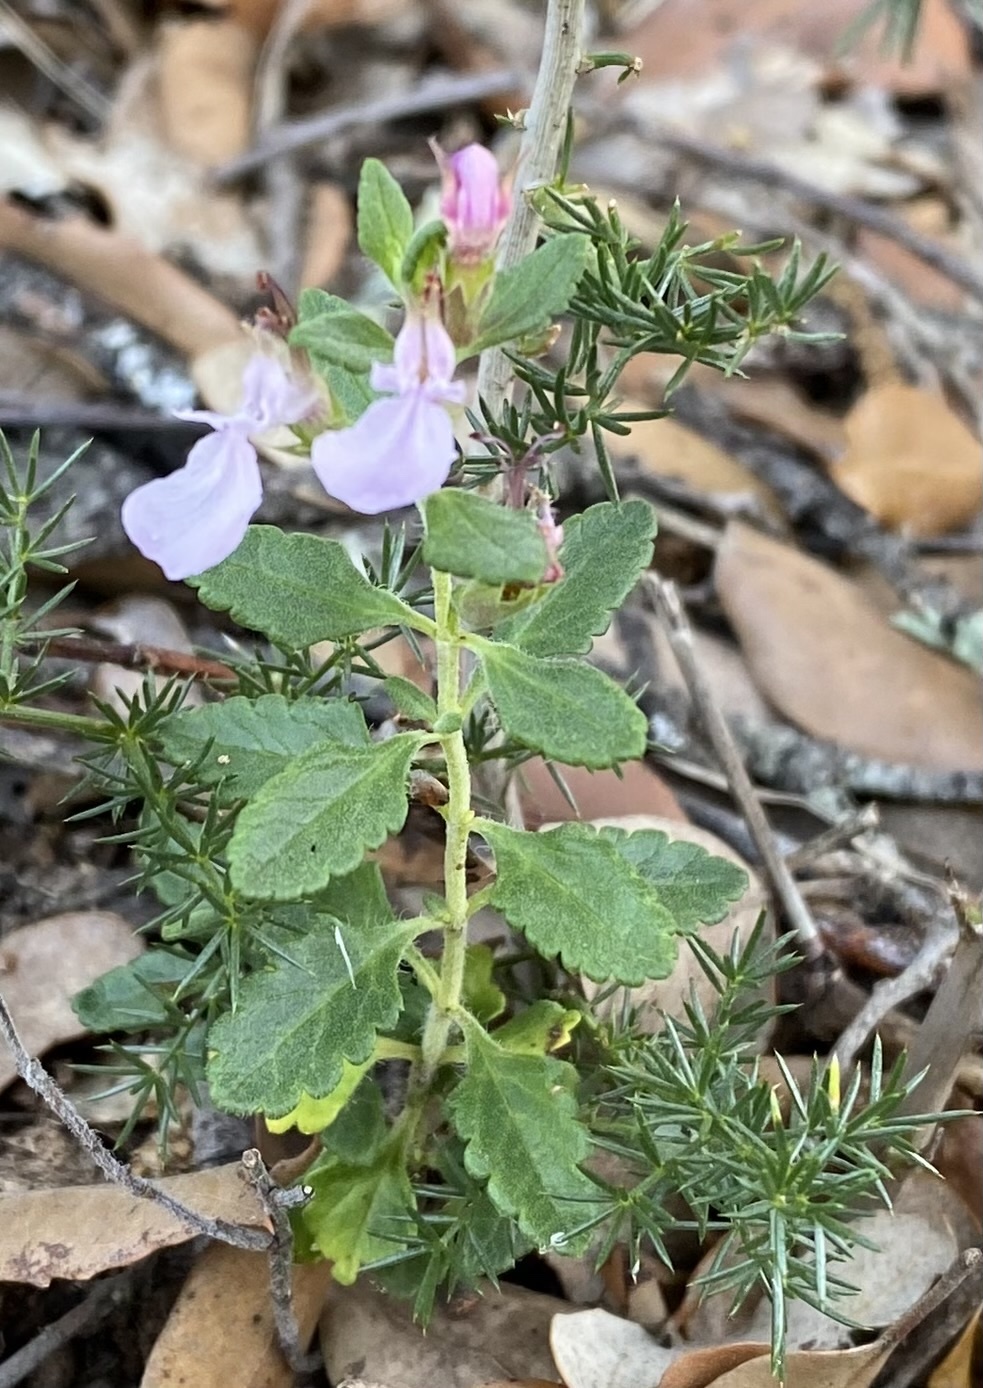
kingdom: Plantae
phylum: Tracheophyta
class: Magnoliopsida
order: Lamiales
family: Lamiaceae
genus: Teucrium
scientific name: Teucrium chamaedrys
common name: Wall germander
